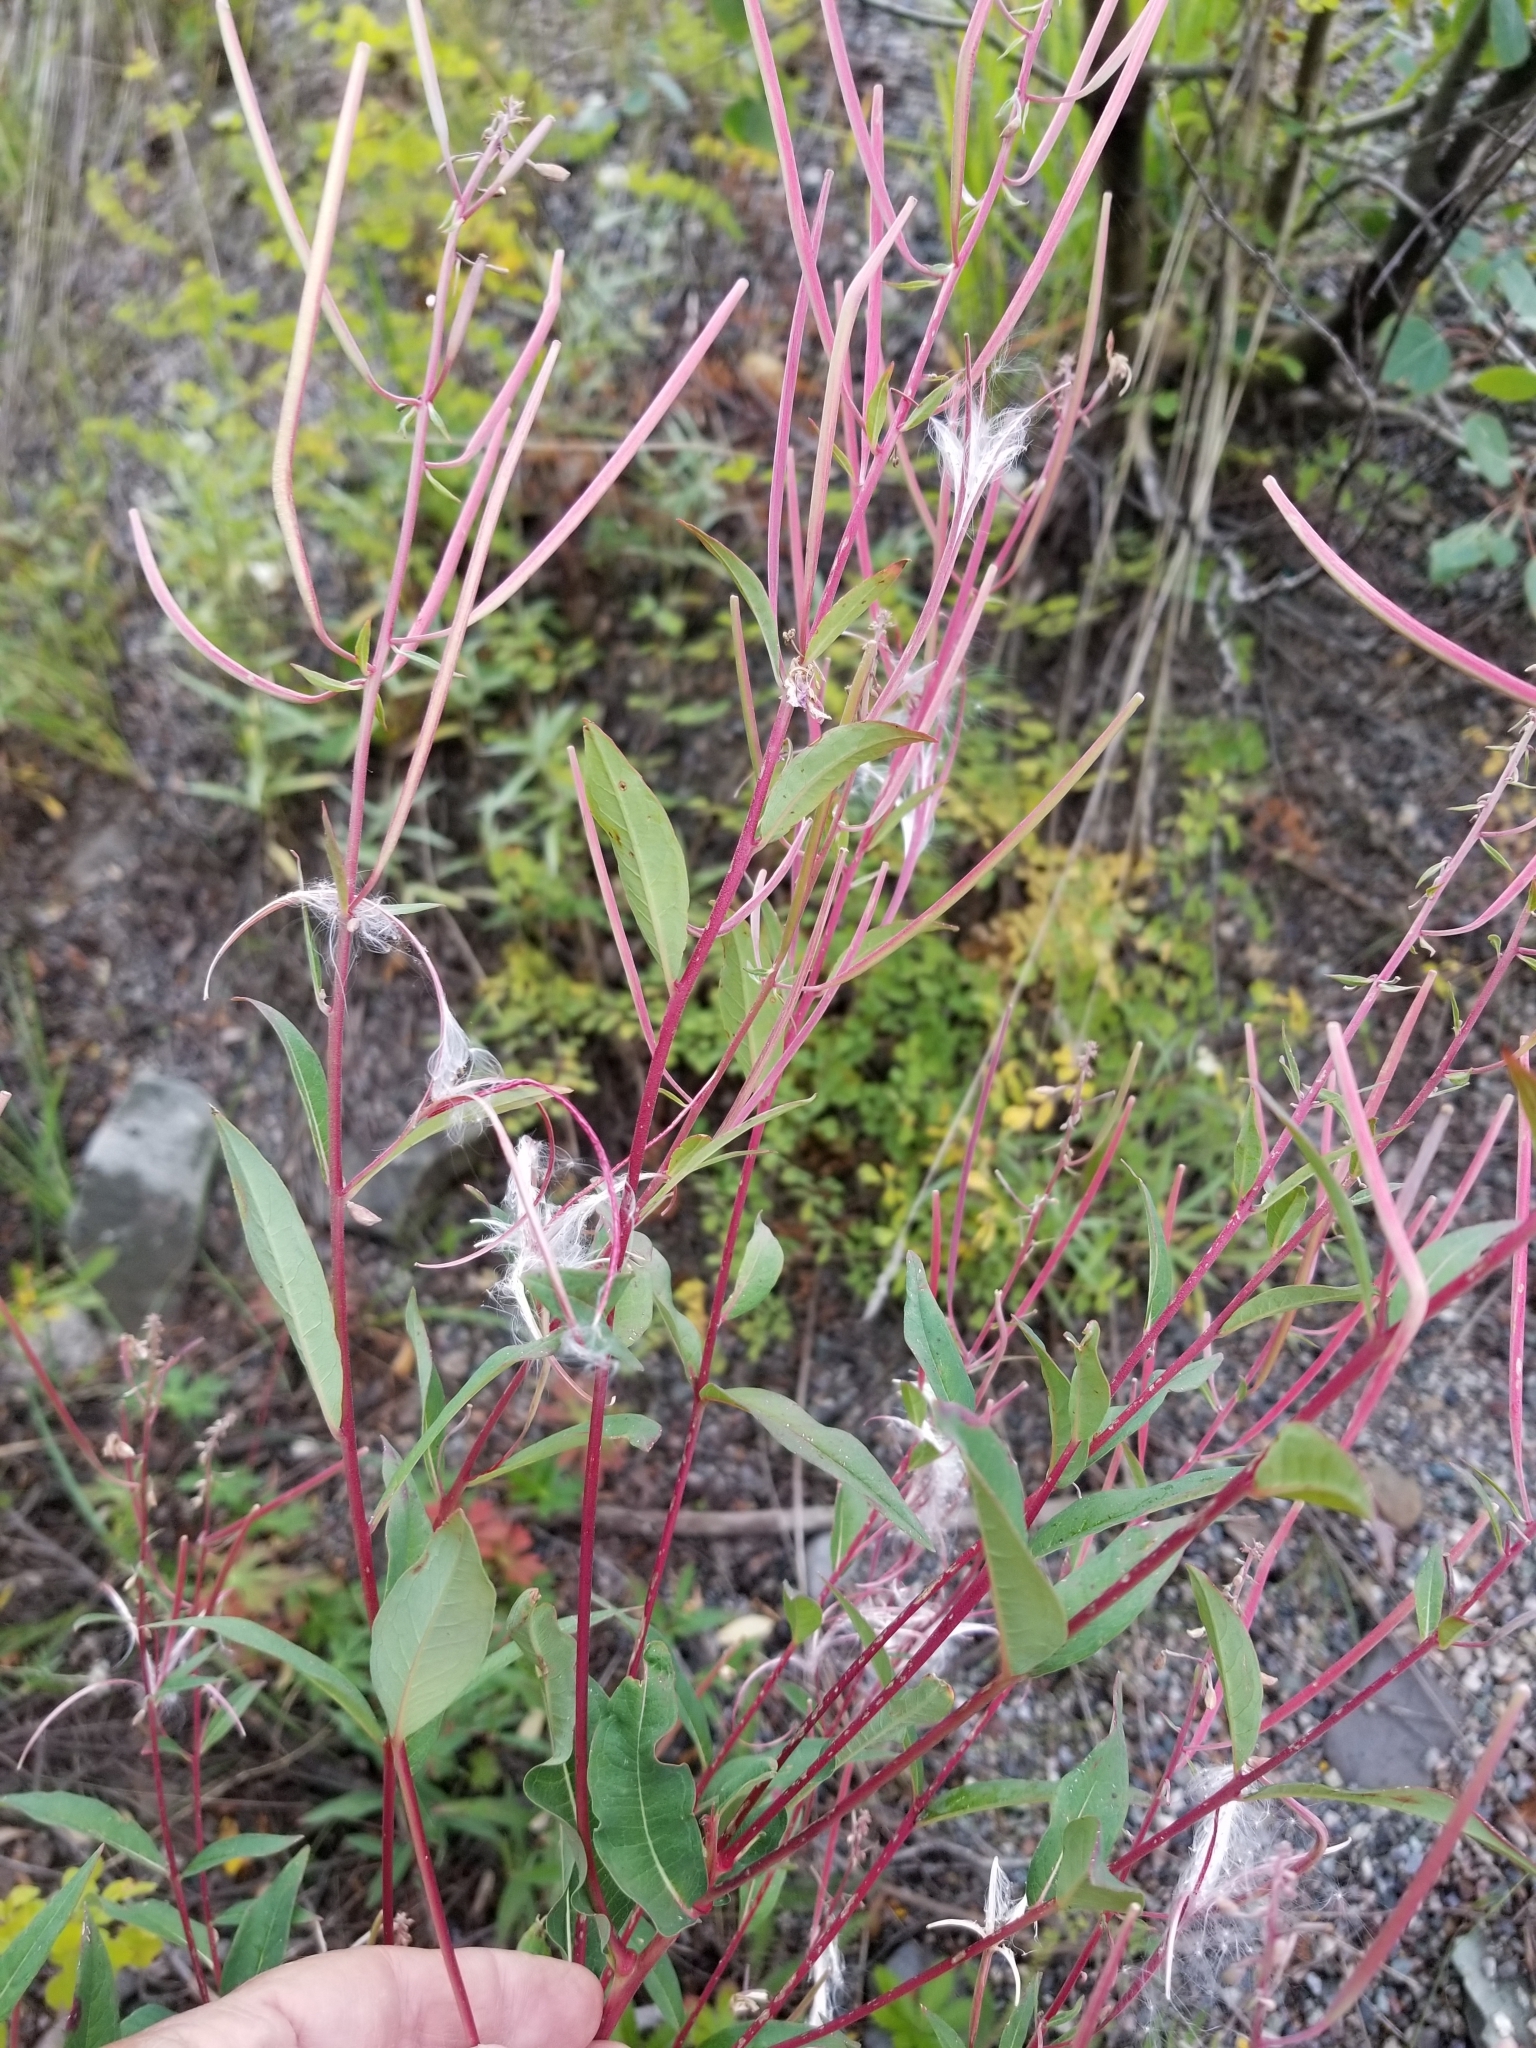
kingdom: Plantae
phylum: Tracheophyta
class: Magnoliopsida
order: Myrtales
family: Onagraceae
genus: Chamaenerion
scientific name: Chamaenerion angustifolium
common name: Fireweed
